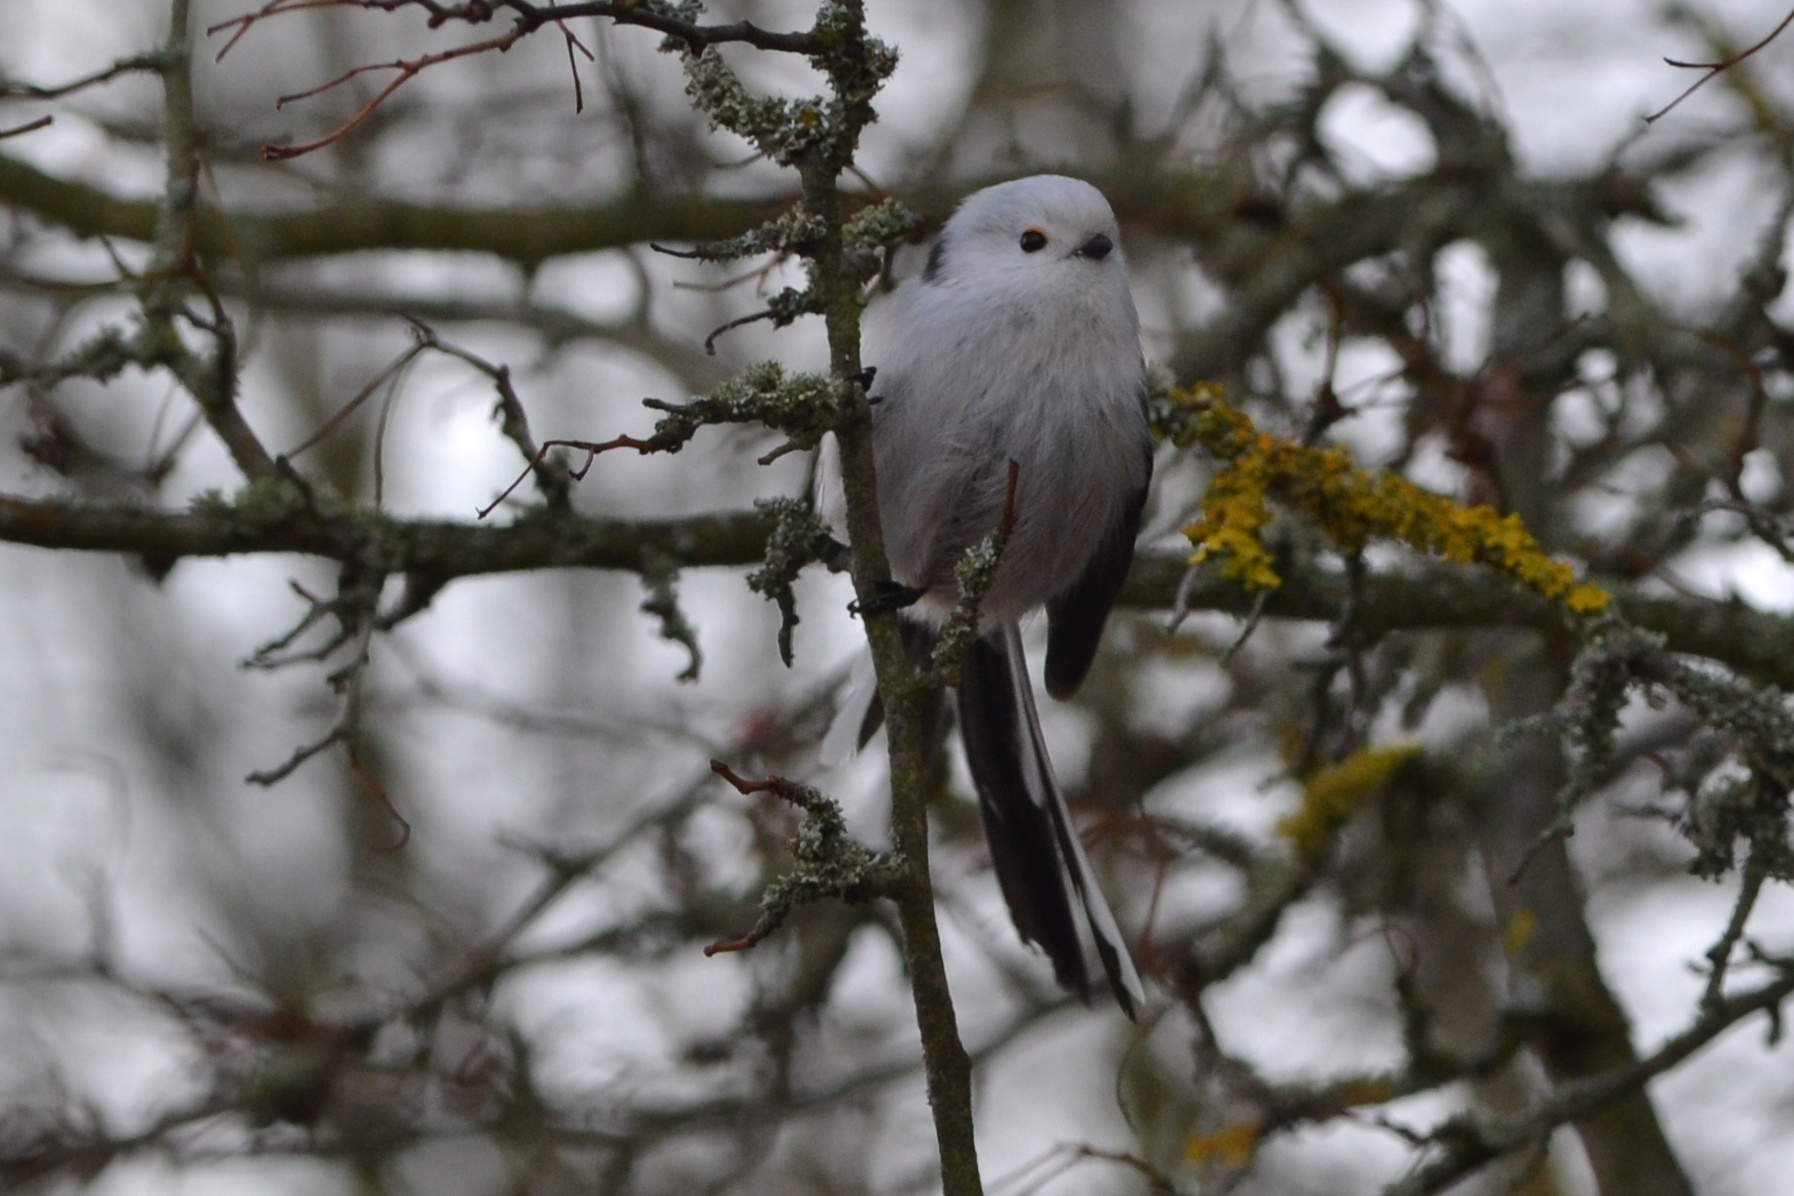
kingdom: Animalia
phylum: Chordata
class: Aves
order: Passeriformes
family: Aegithalidae
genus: Aegithalos
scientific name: Aegithalos caudatus
